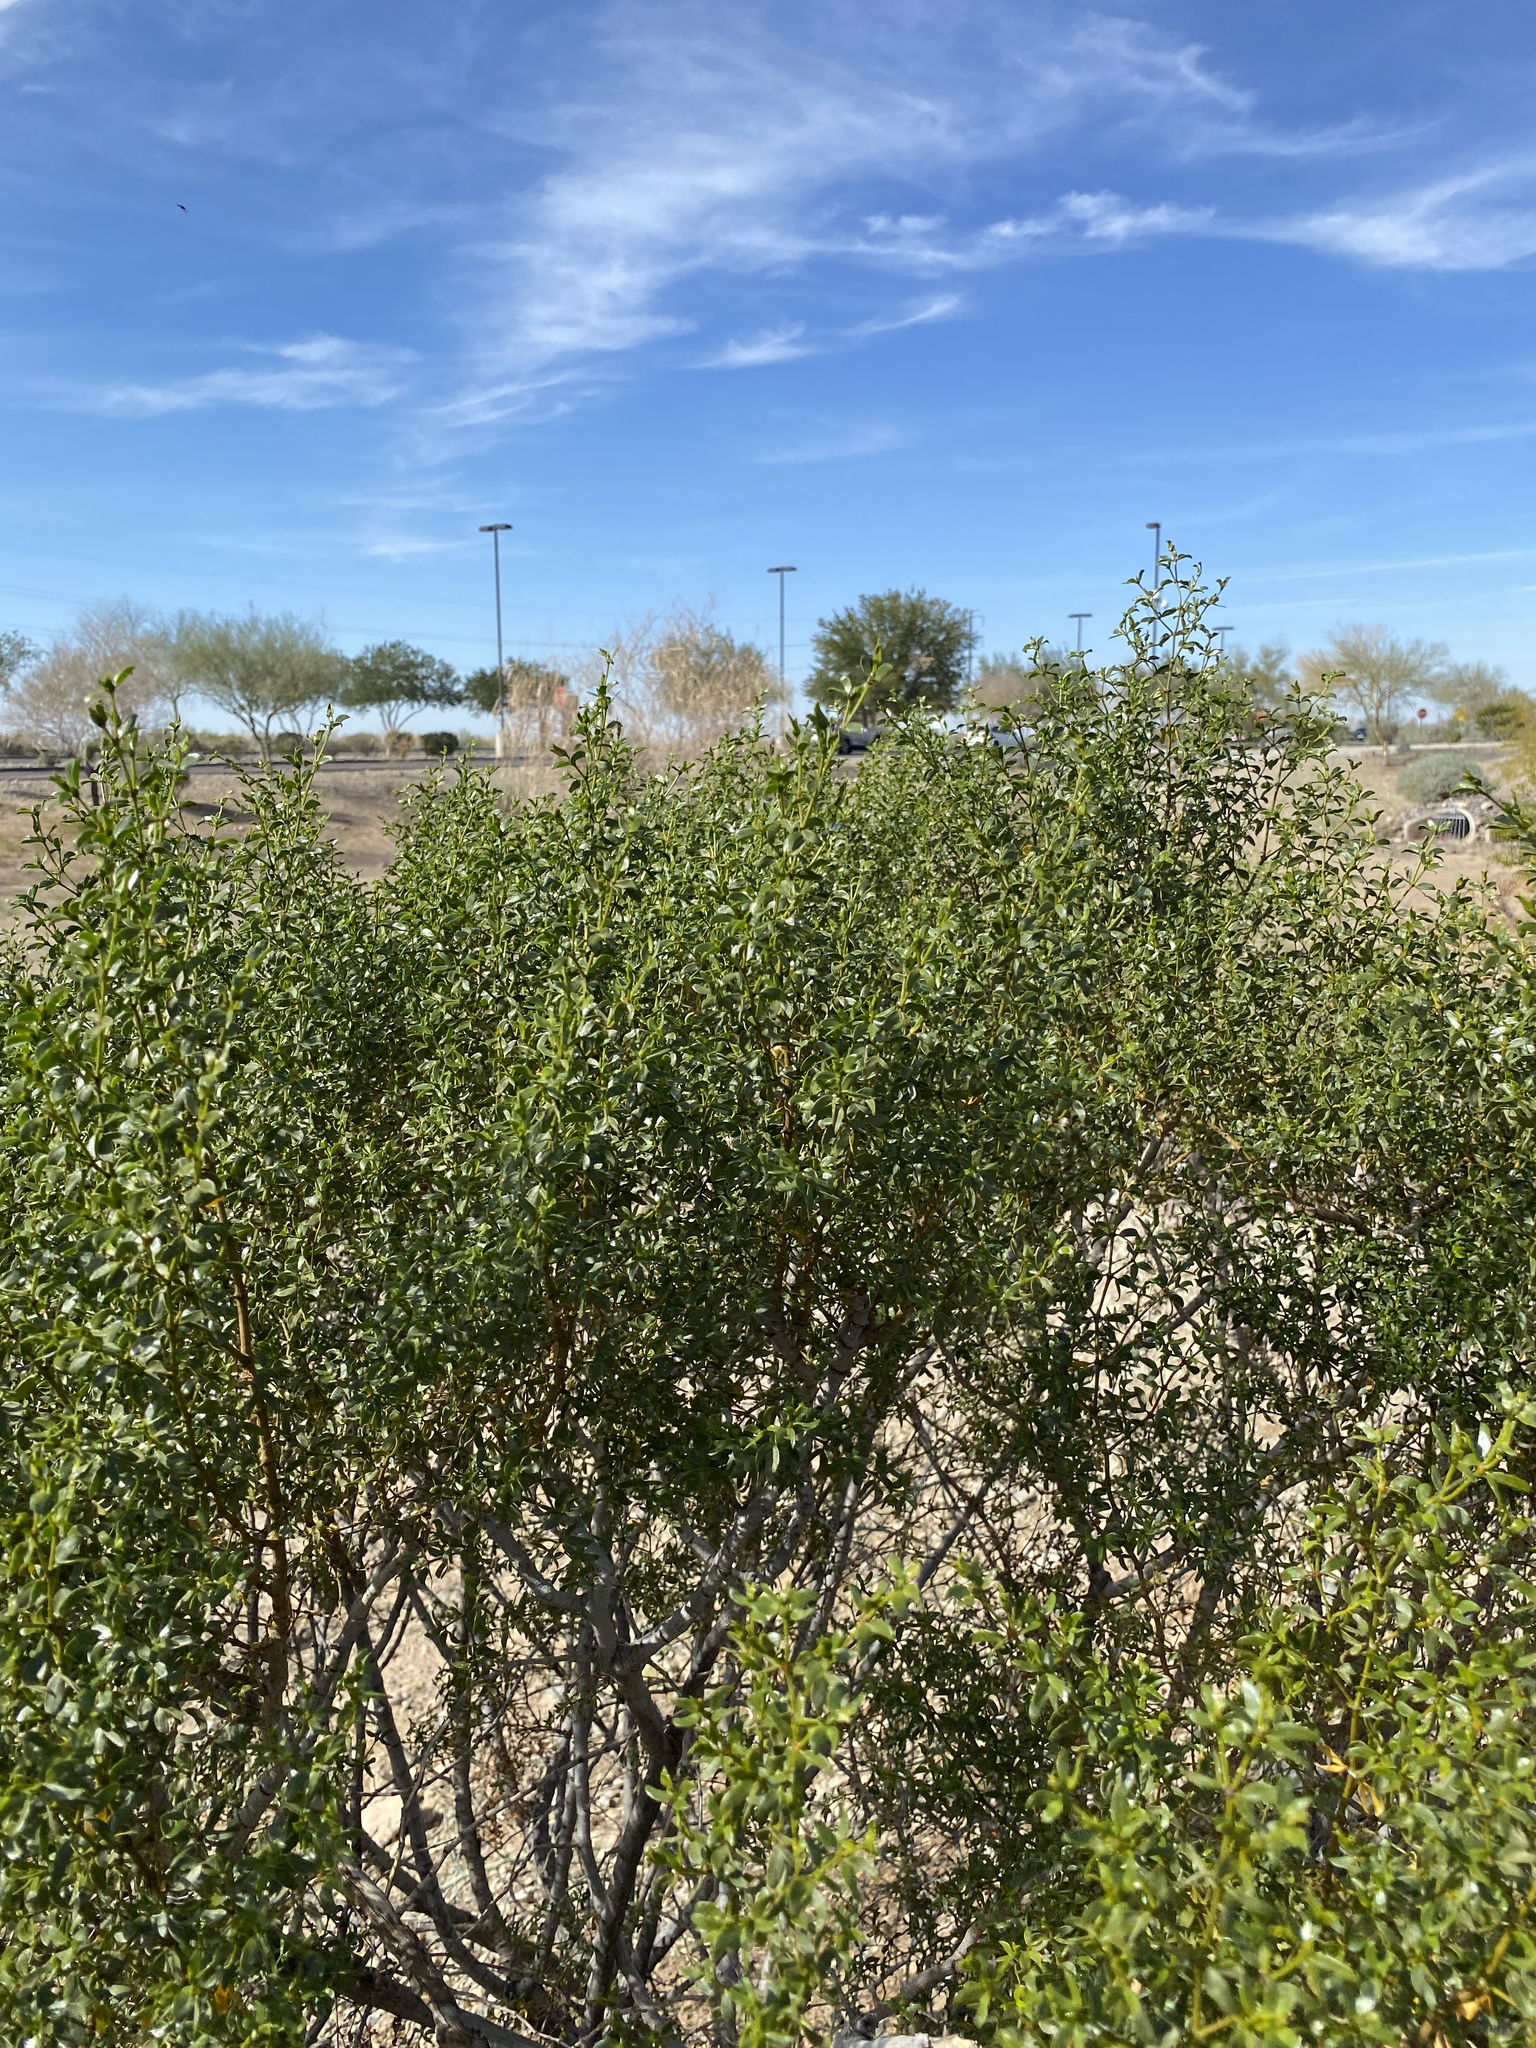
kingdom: Plantae
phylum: Tracheophyta
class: Magnoliopsida
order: Zygophyllales
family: Zygophyllaceae
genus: Larrea
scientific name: Larrea tridentata
